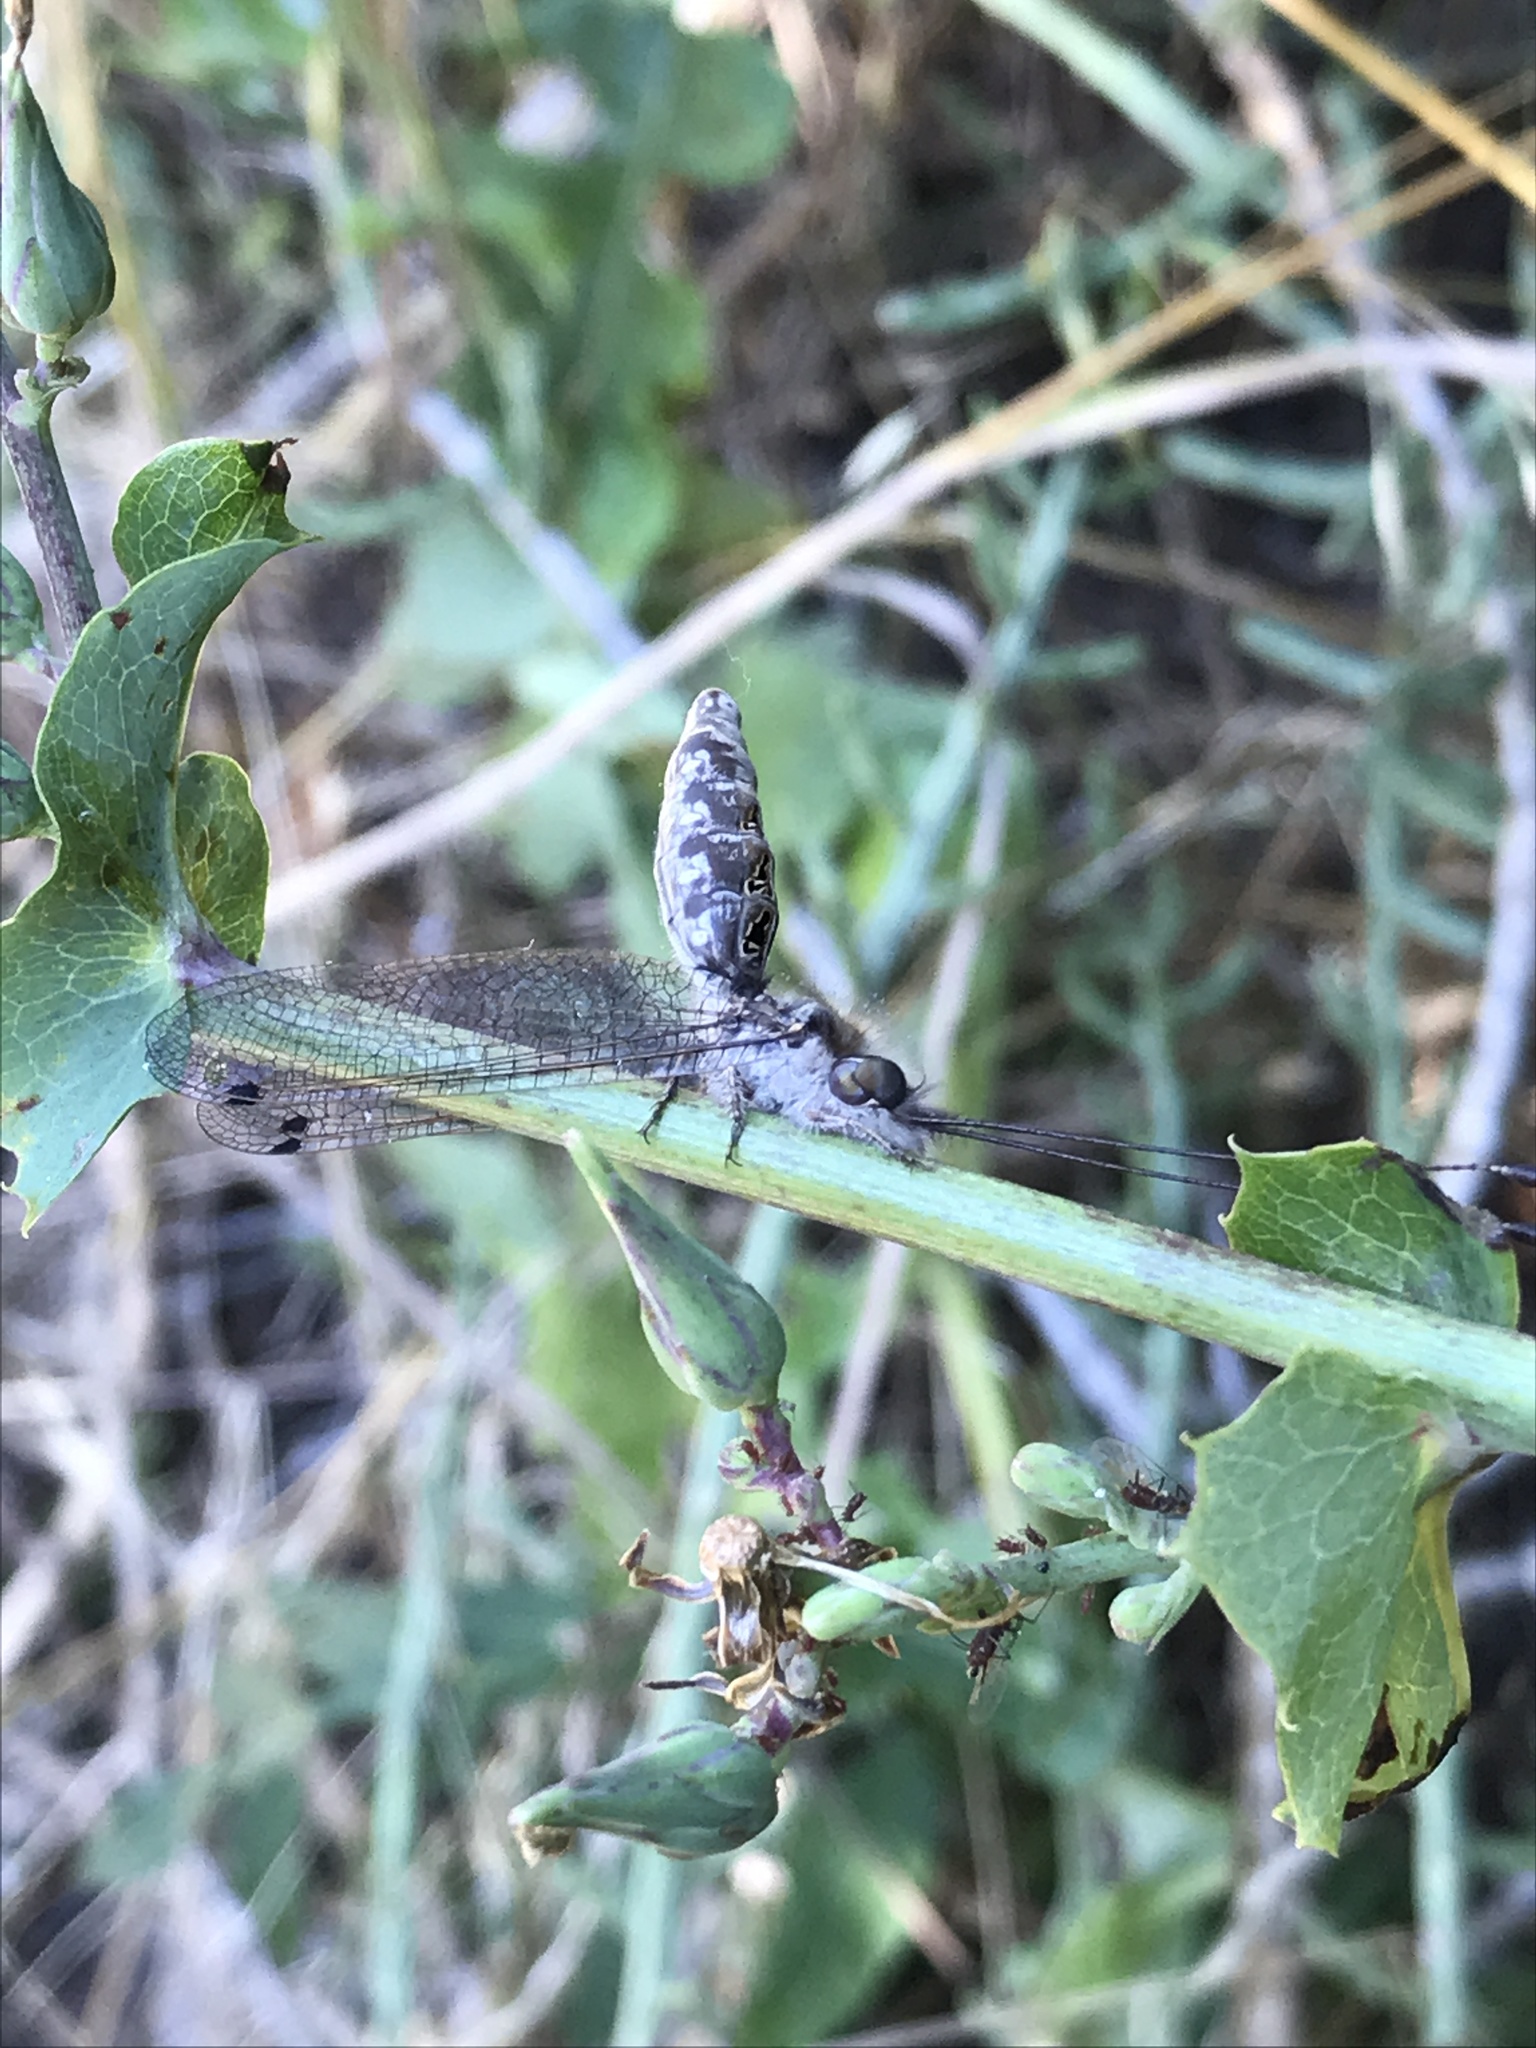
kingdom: Animalia
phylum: Arthropoda
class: Insecta
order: Neuroptera
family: Ascalaphidae
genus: Ululodes
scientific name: Ululodes macleayanus
